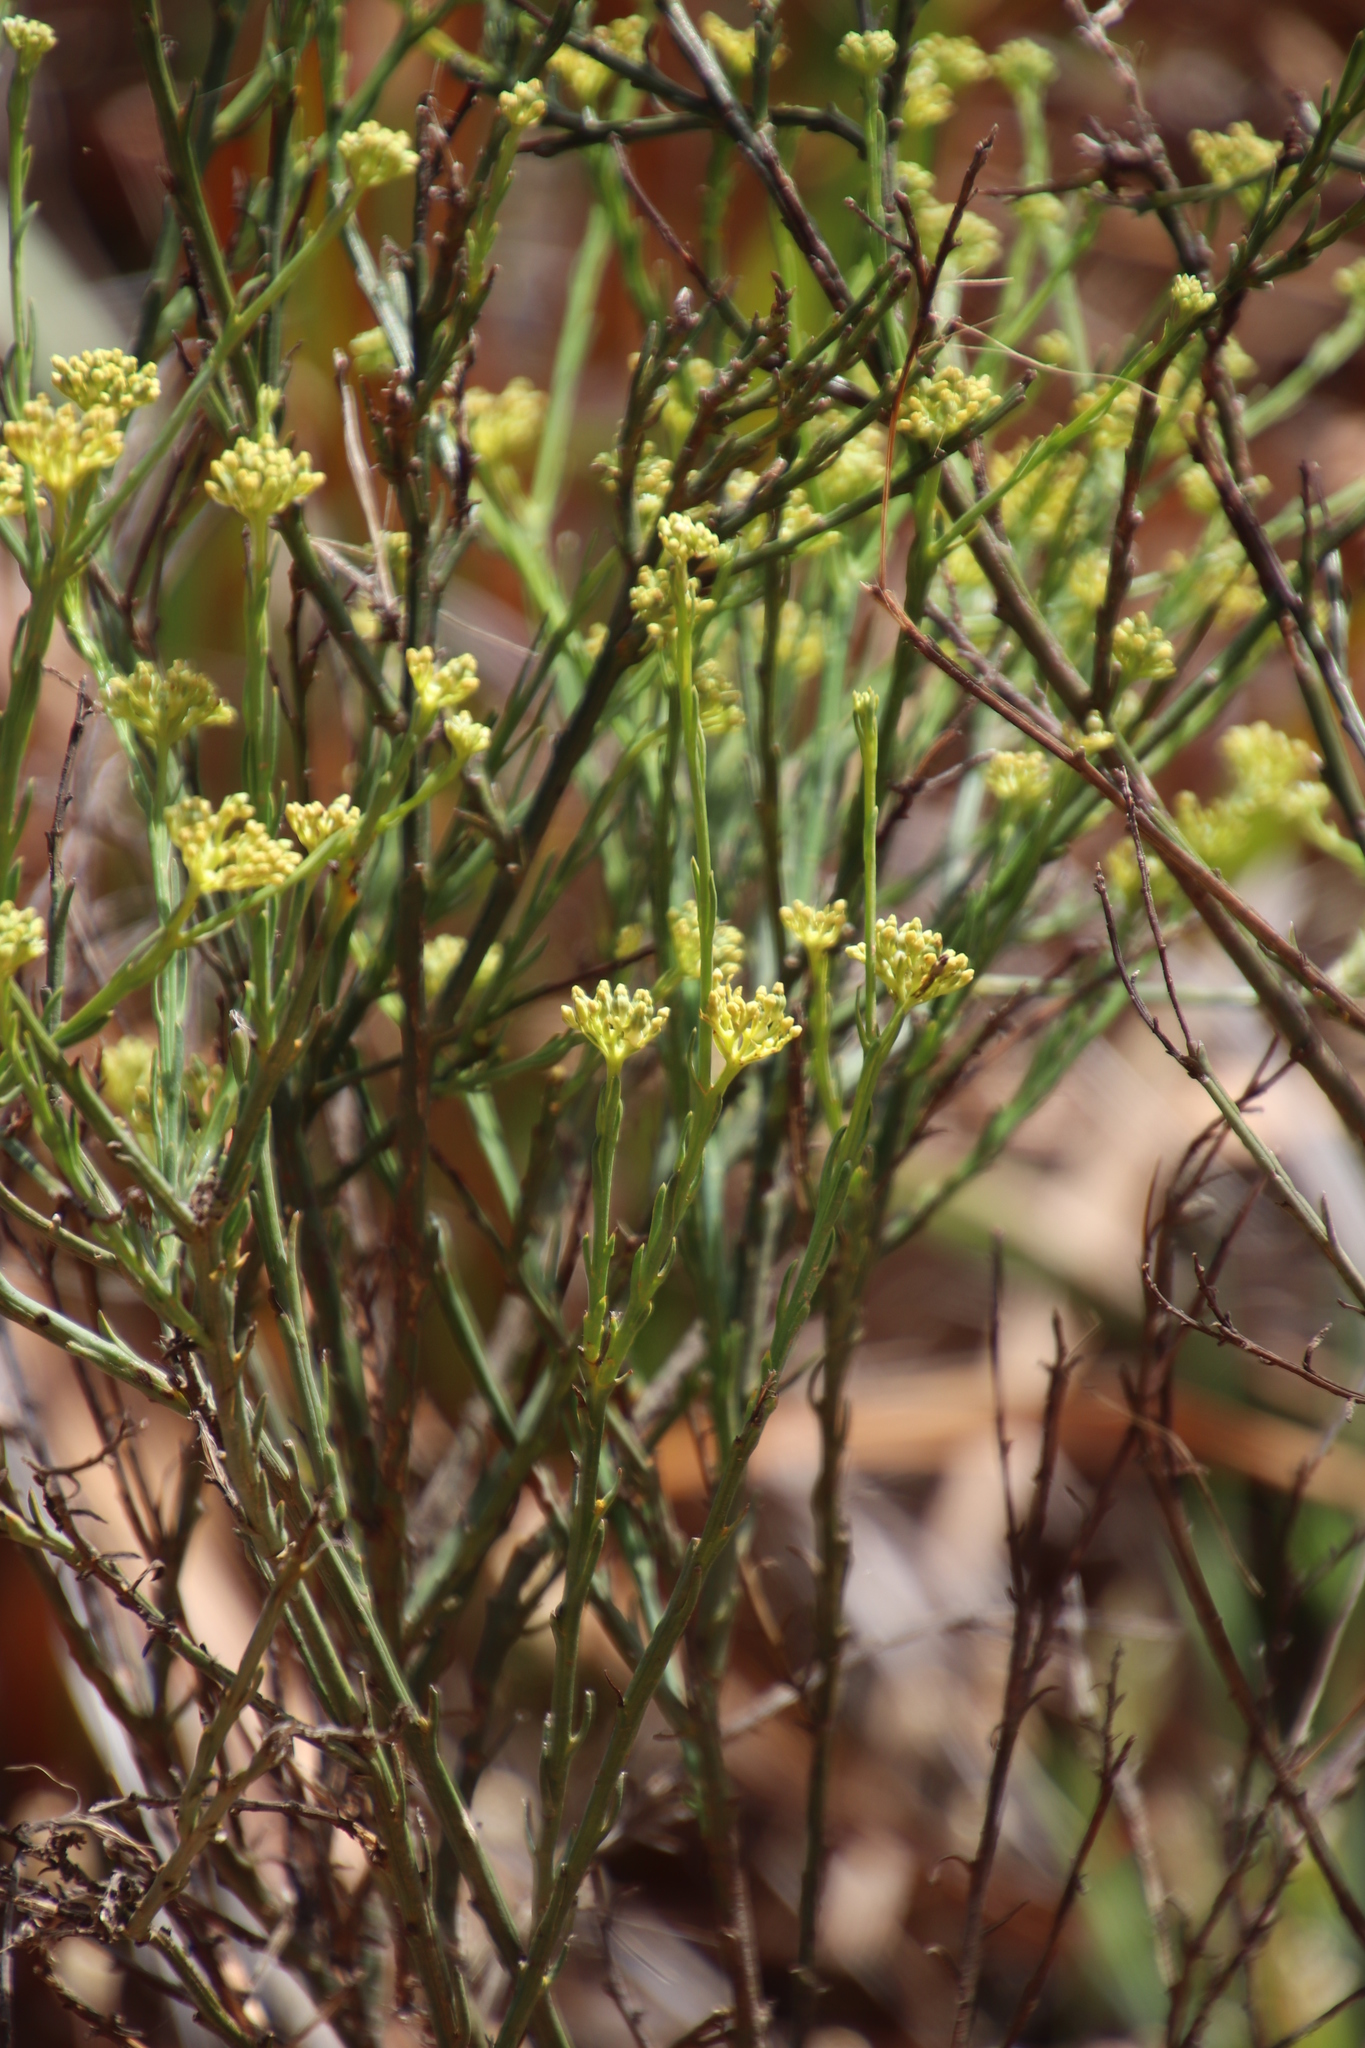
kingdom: Plantae
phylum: Tracheophyta
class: Magnoliopsida
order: Santalales
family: Thesiaceae
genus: Thesium
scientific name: Thesium strictum
